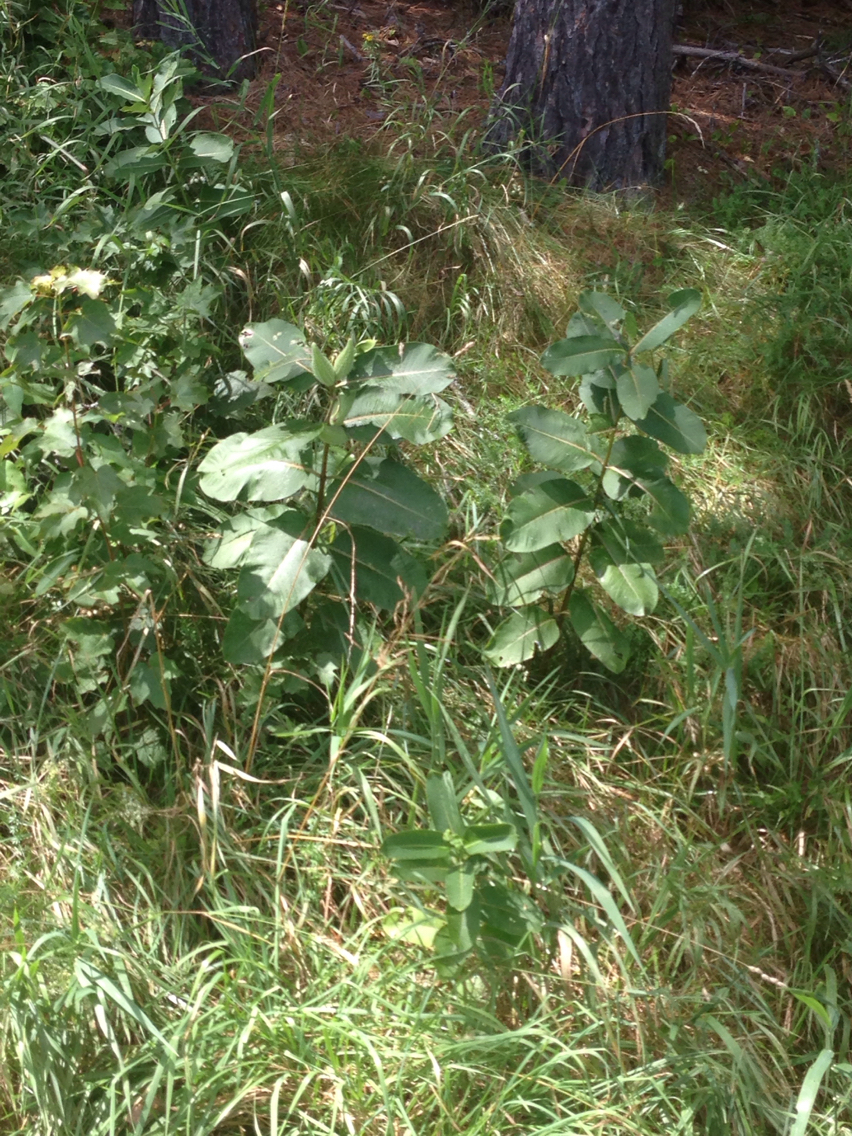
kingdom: Plantae
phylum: Tracheophyta
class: Magnoliopsida
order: Gentianales
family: Apocynaceae
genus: Asclepias
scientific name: Asclepias syriaca
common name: Common milkweed
